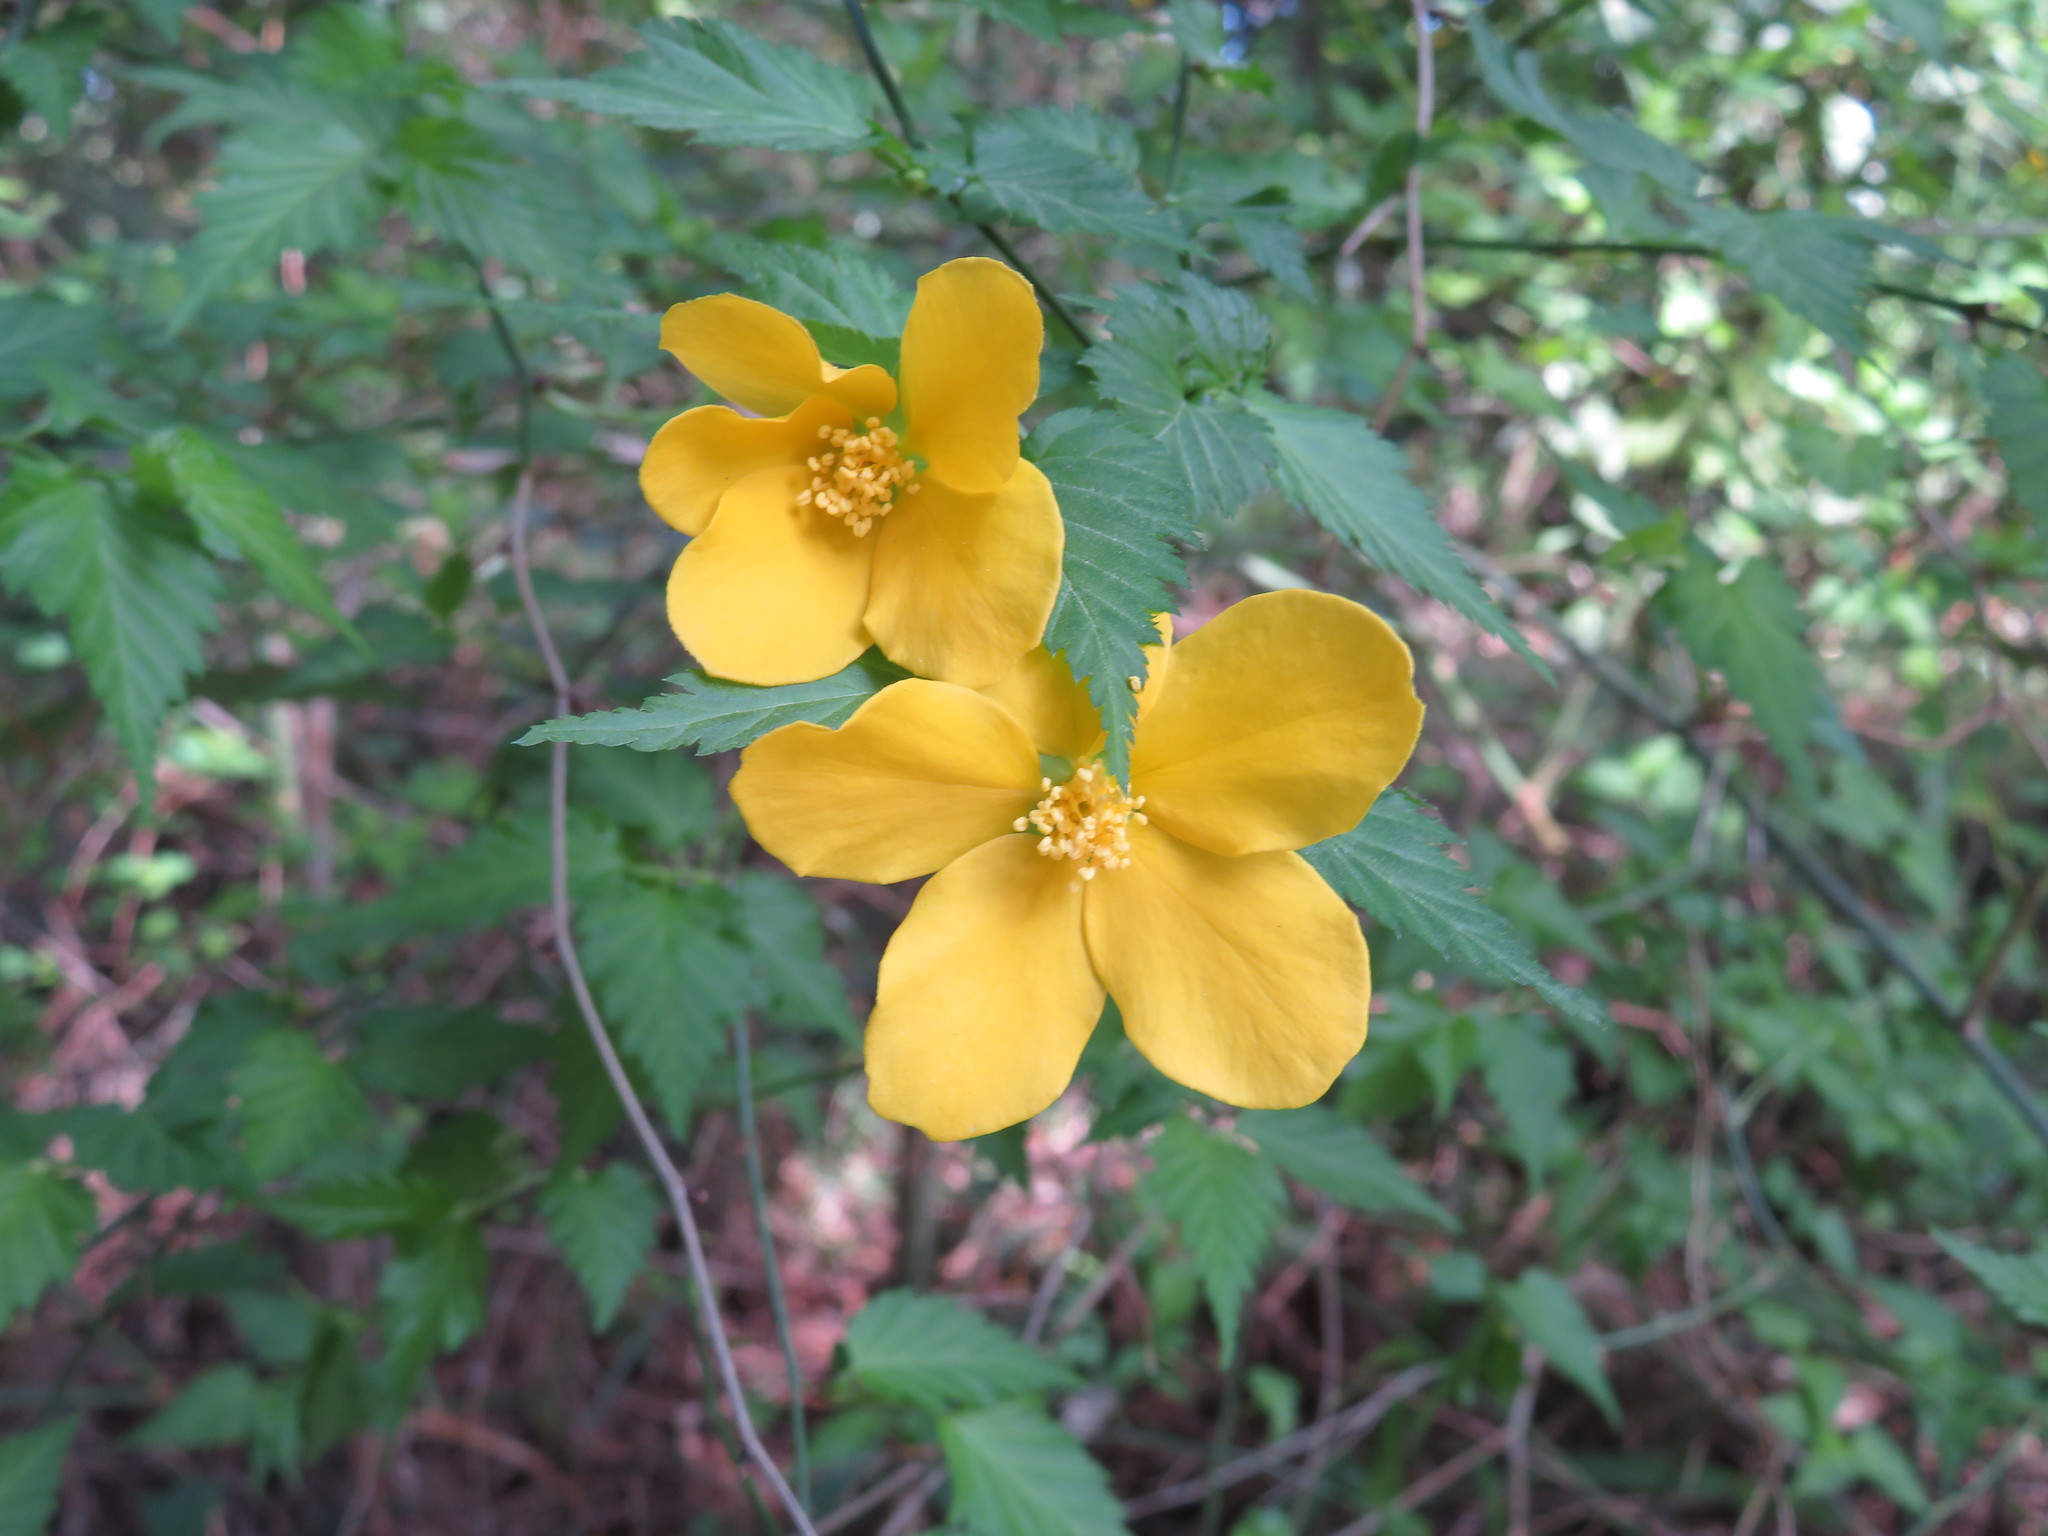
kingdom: Plantae
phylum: Tracheophyta
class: Magnoliopsida
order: Rosales
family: Rosaceae
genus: Kerria
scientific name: Kerria japonica
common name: Japanese kerria
